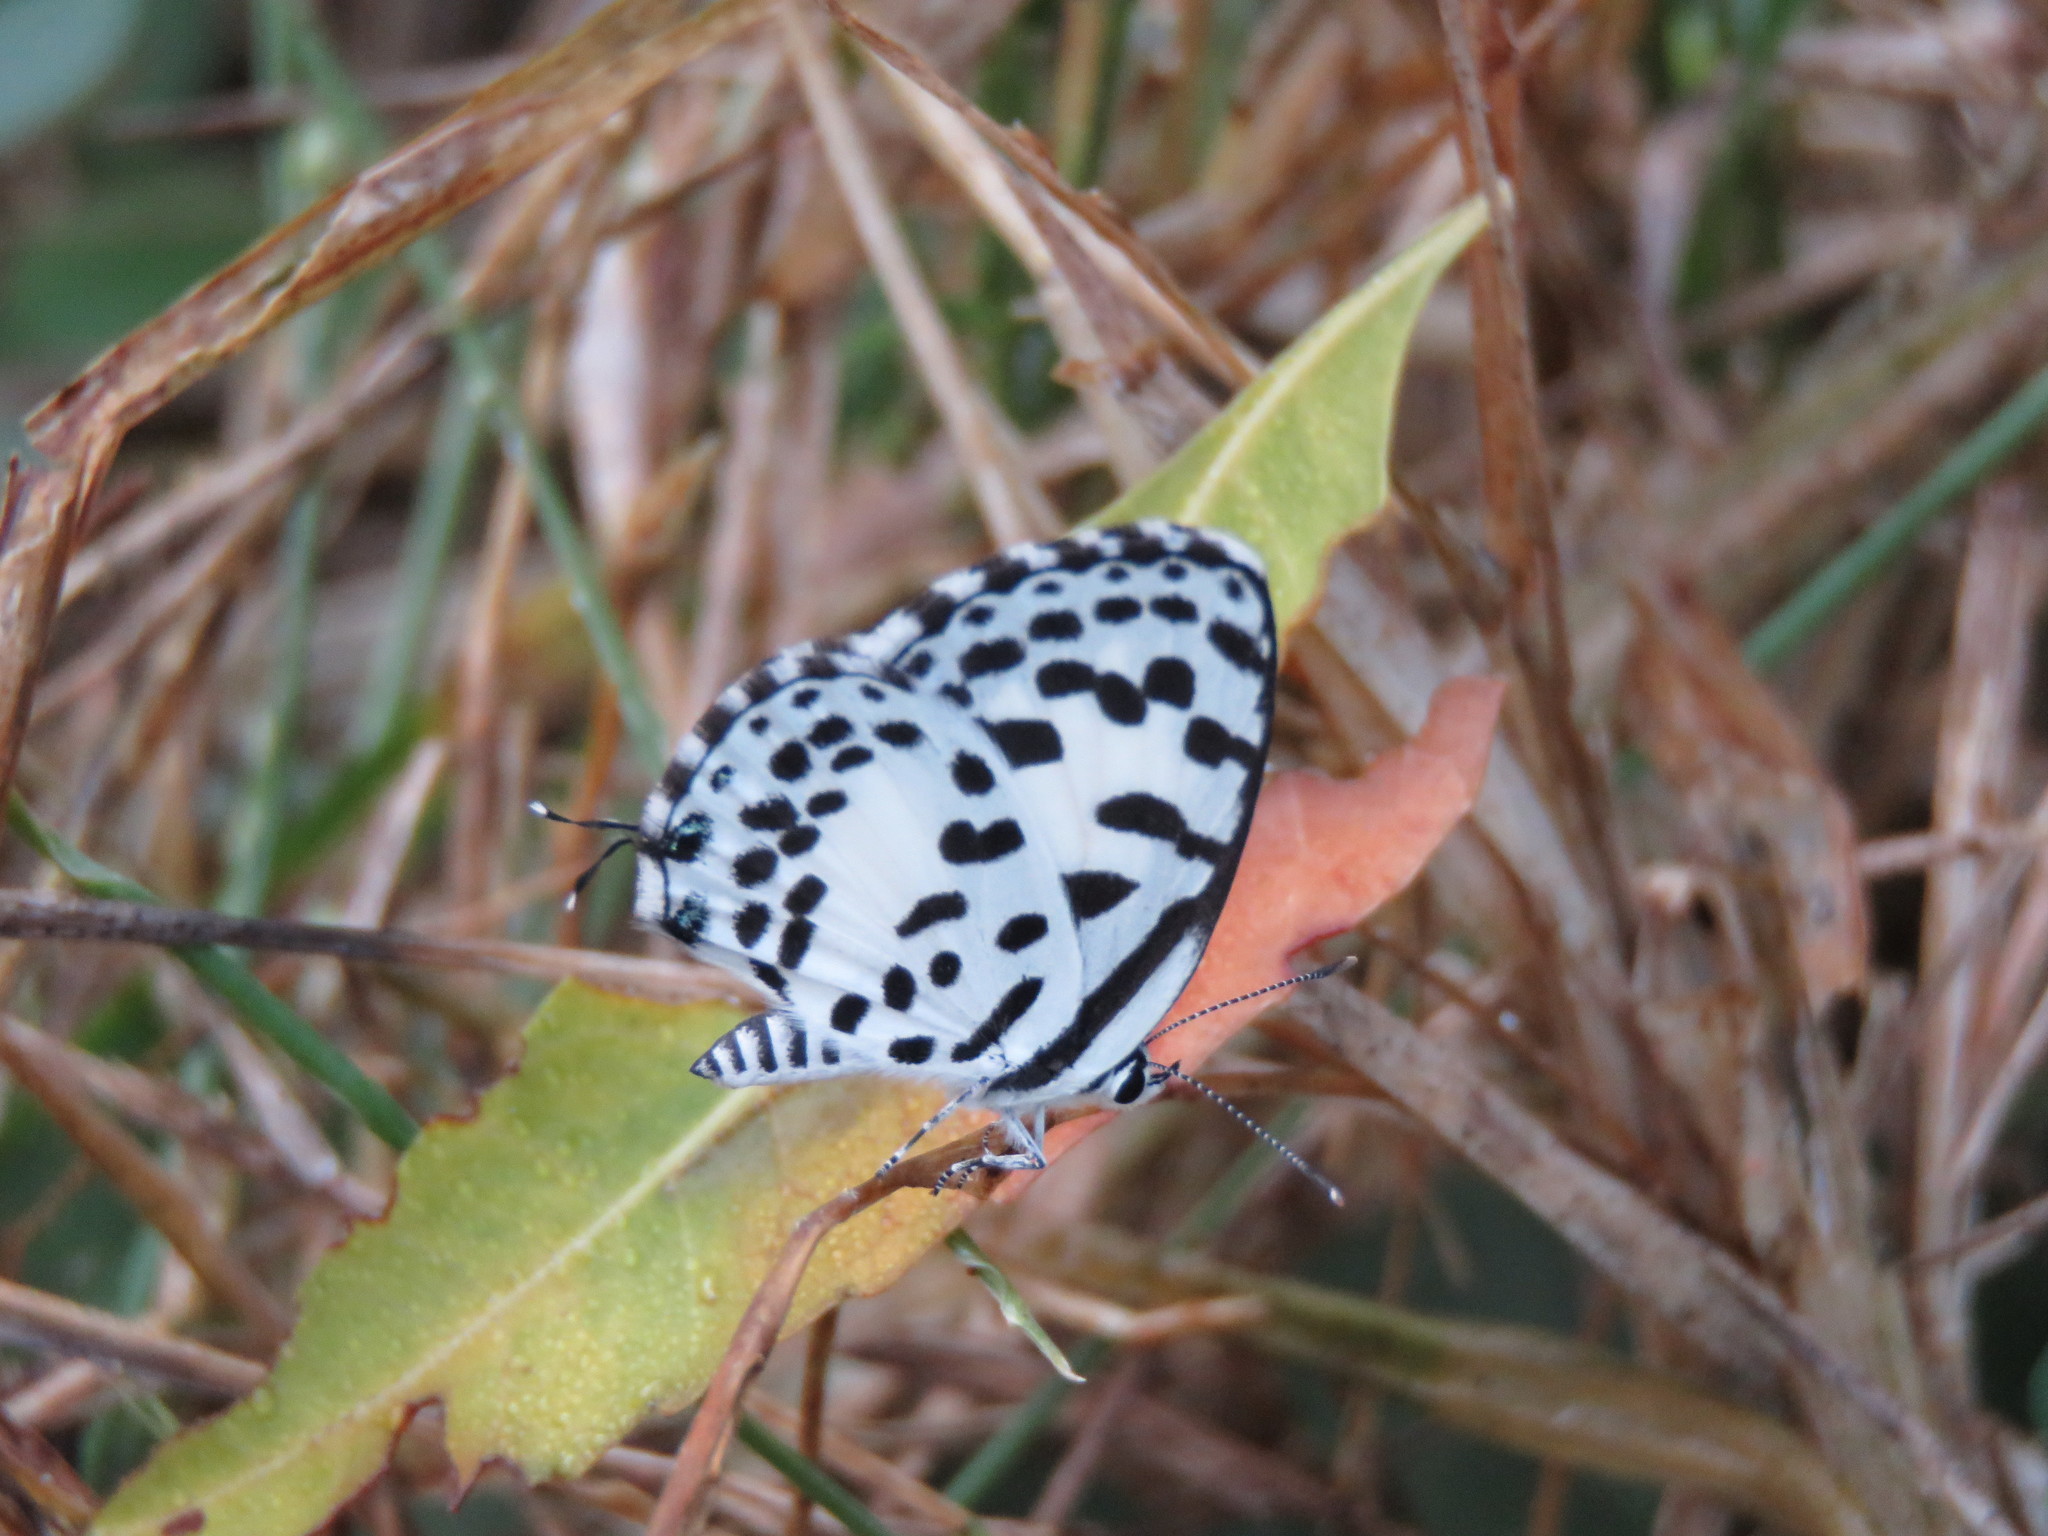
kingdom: Animalia
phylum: Arthropoda
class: Insecta
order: Lepidoptera
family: Lycaenidae
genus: Castalius
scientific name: Castalius rosimon
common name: Common pierrot
